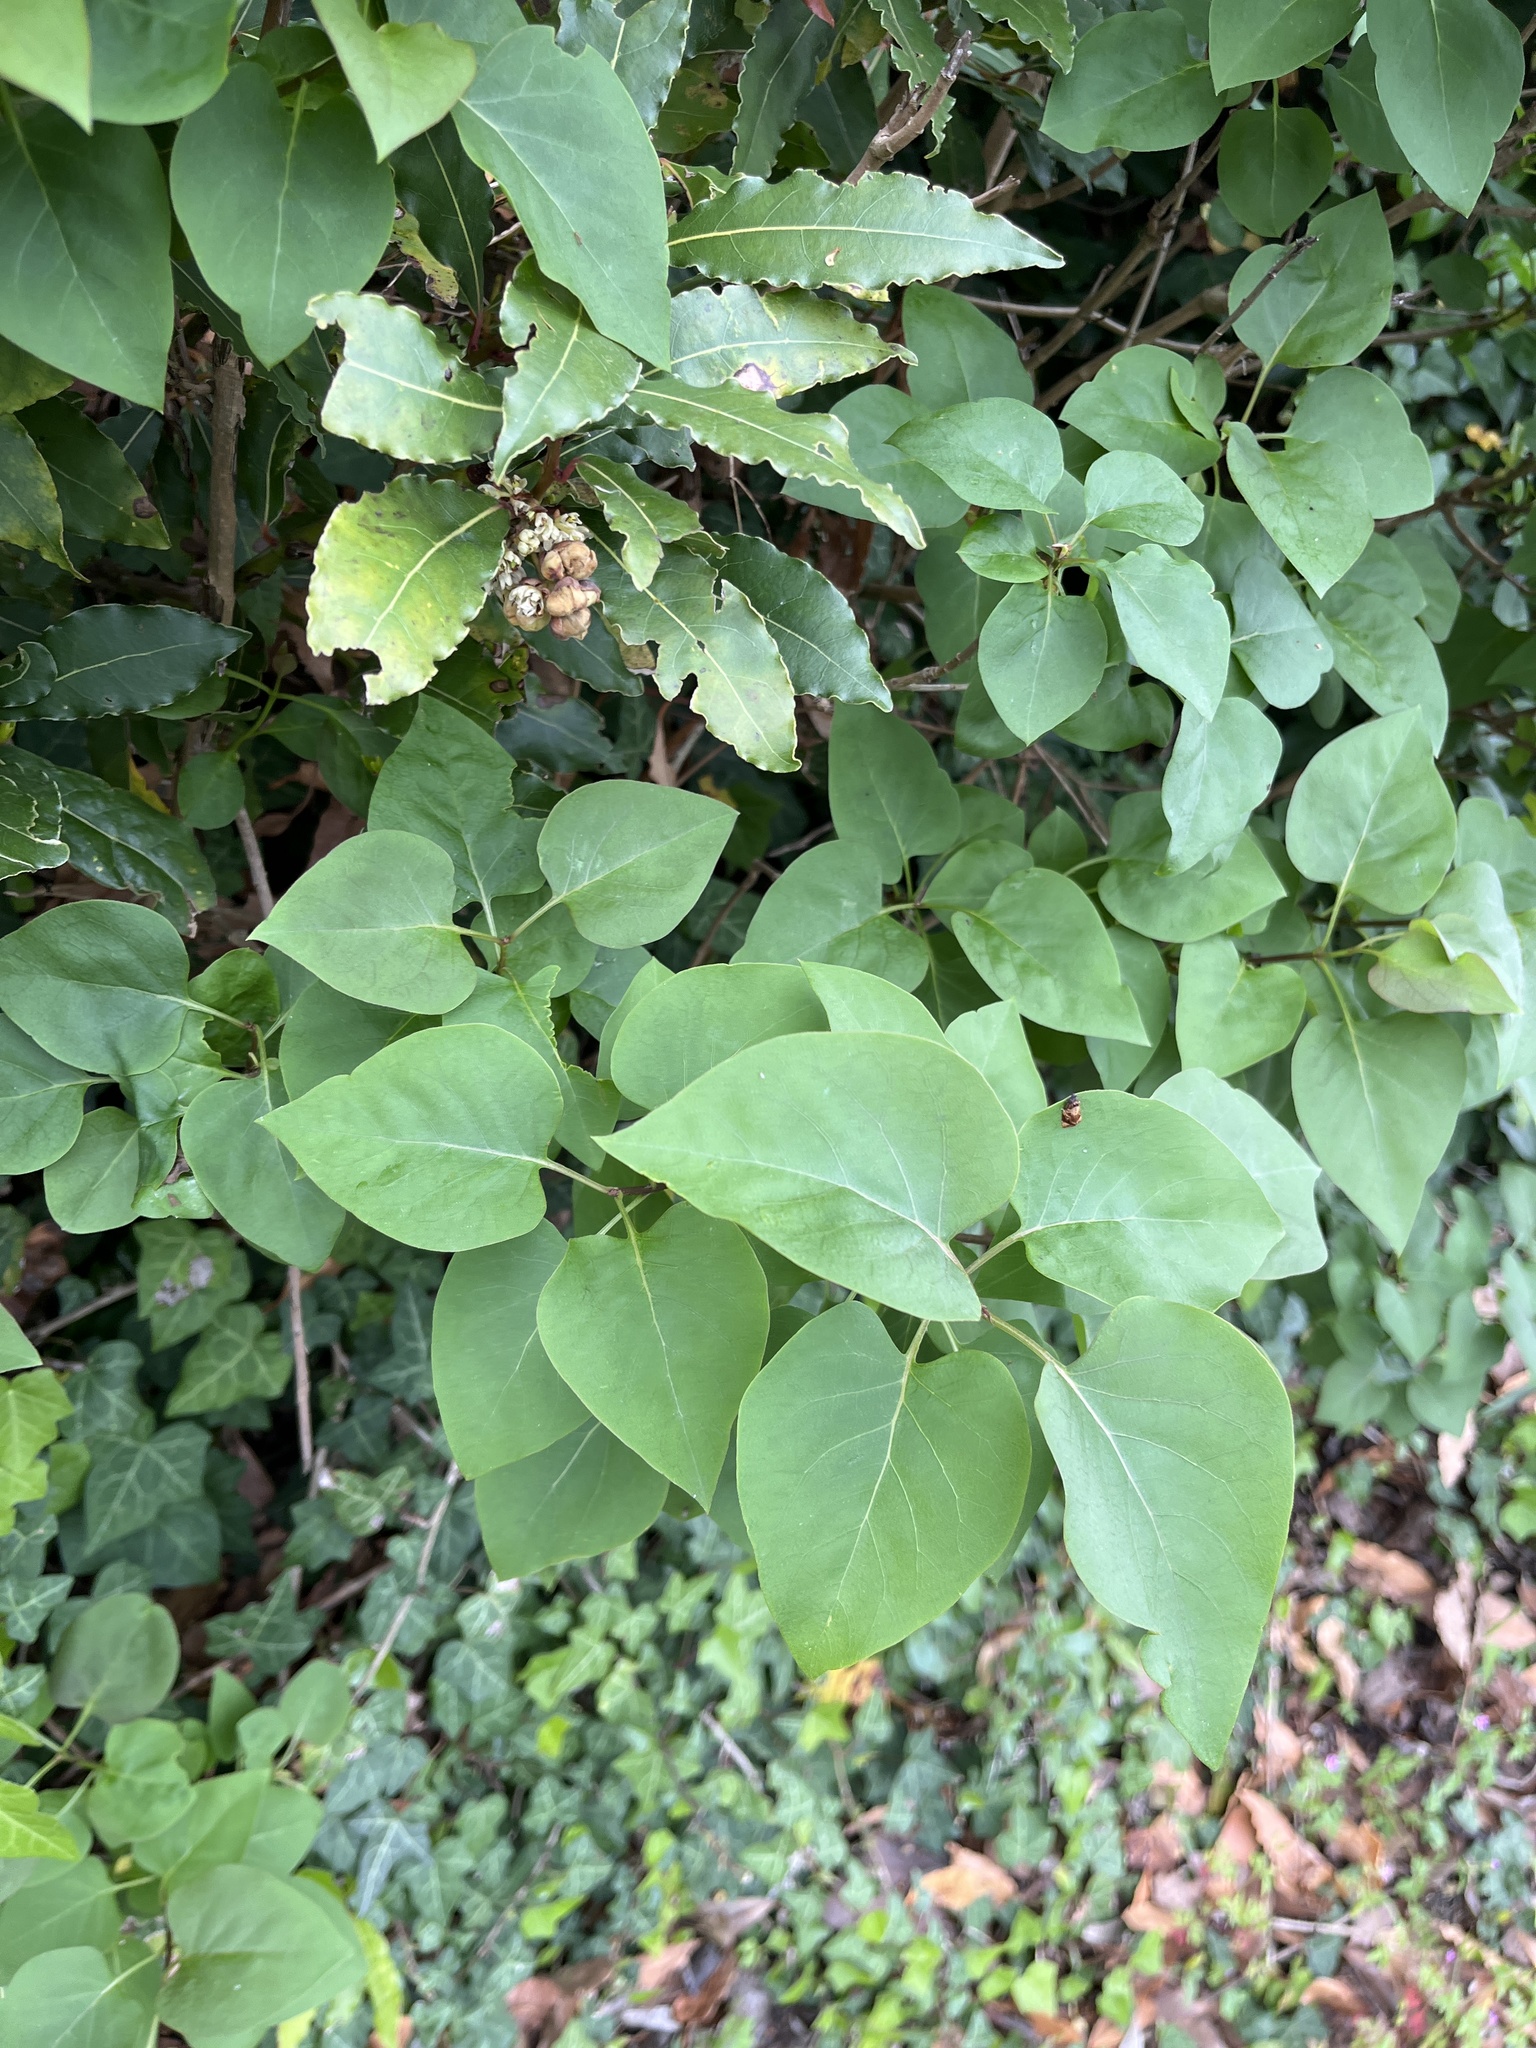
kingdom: Plantae
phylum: Tracheophyta
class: Magnoliopsida
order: Lamiales
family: Oleaceae
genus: Syringa
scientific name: Syringa vulgaris
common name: Common lilac
